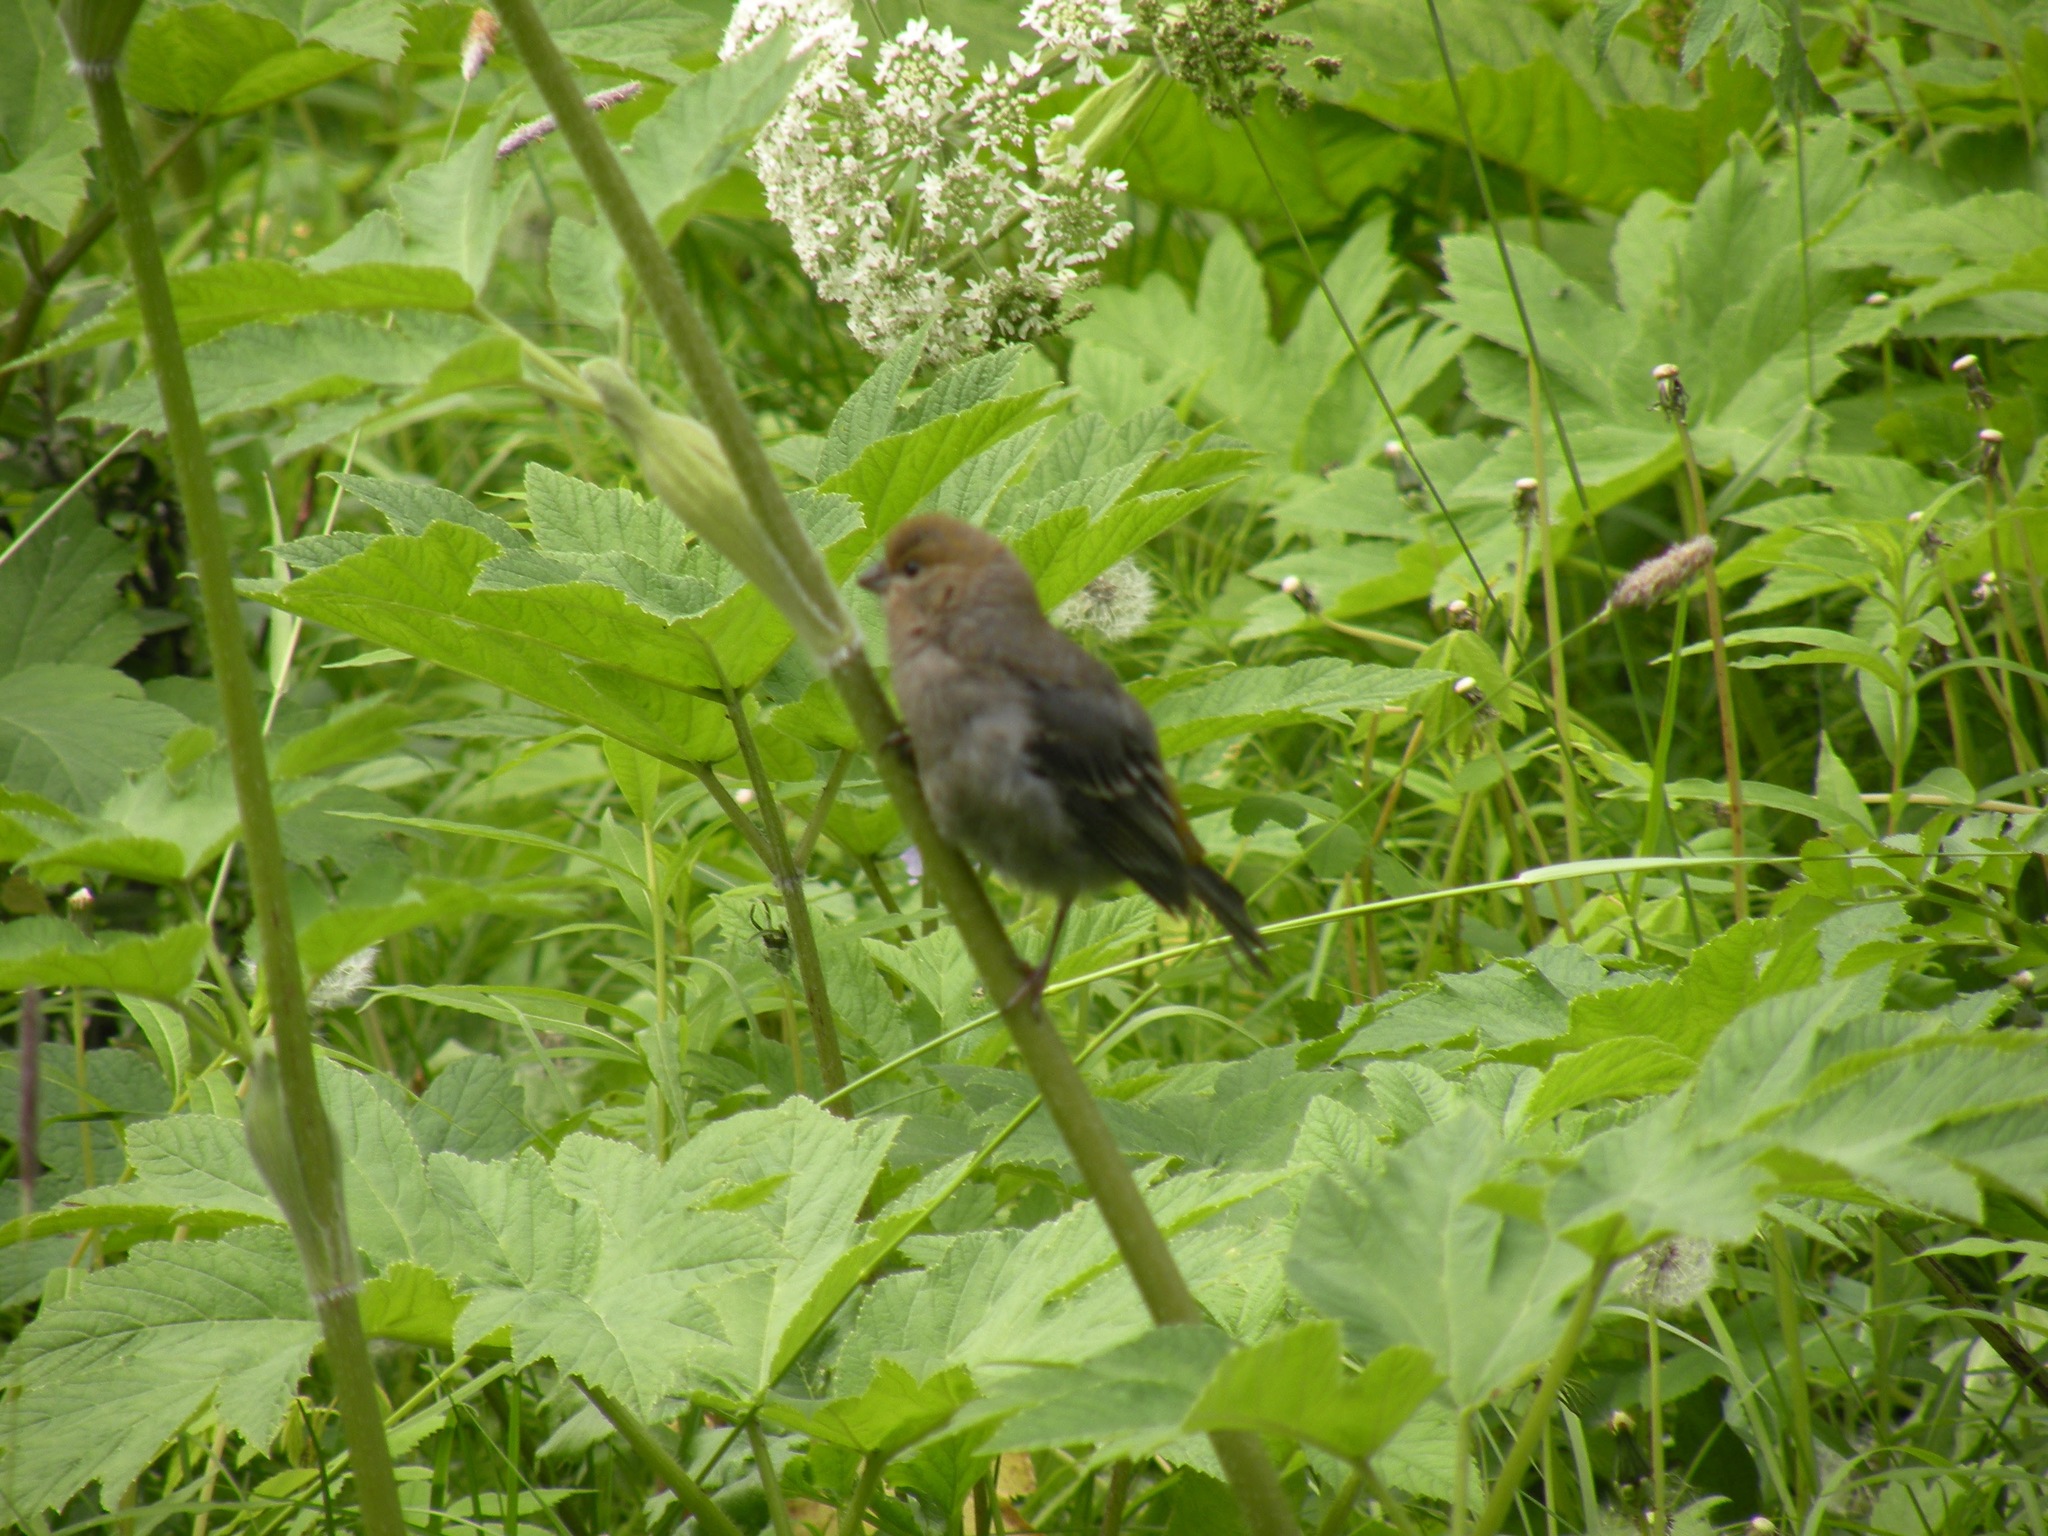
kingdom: Animalia
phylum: Chordata
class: Aves
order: Passeriformes
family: Fringillidae
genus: Pinicola
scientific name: Pinicola enucleator
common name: Pine grosbeak
